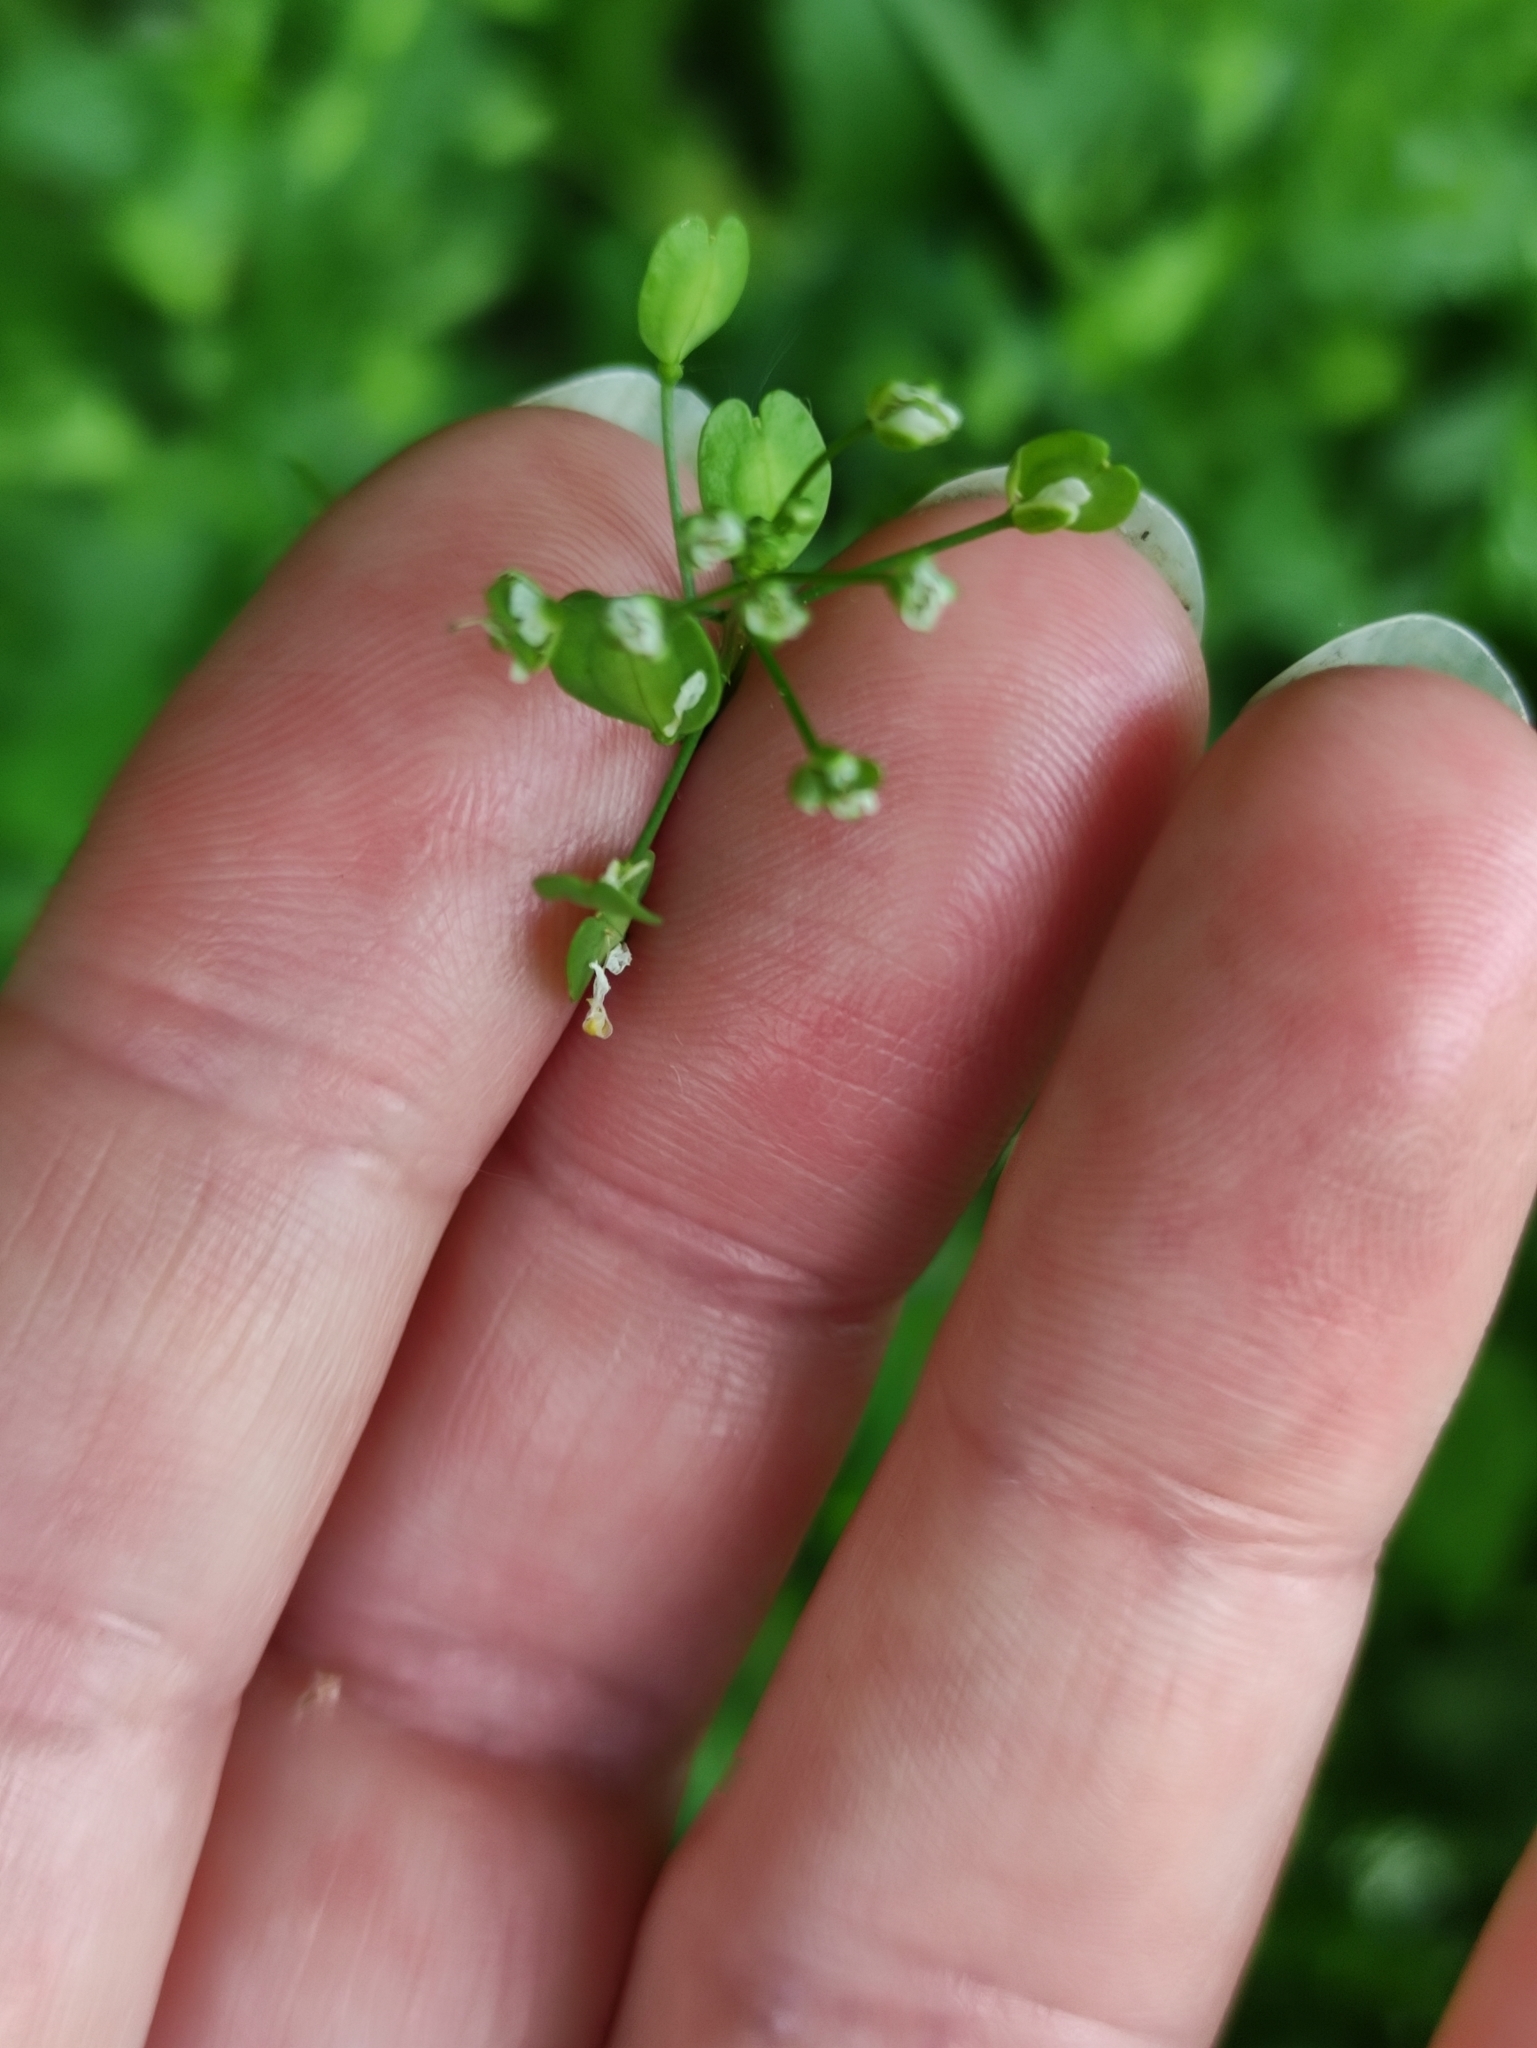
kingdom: Plantae
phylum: Tracheophyta
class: Magnoliopsida
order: Brassicales
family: Brassicaceae
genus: Thlaspi
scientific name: Thlaspi arvense
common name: Field pennycress
